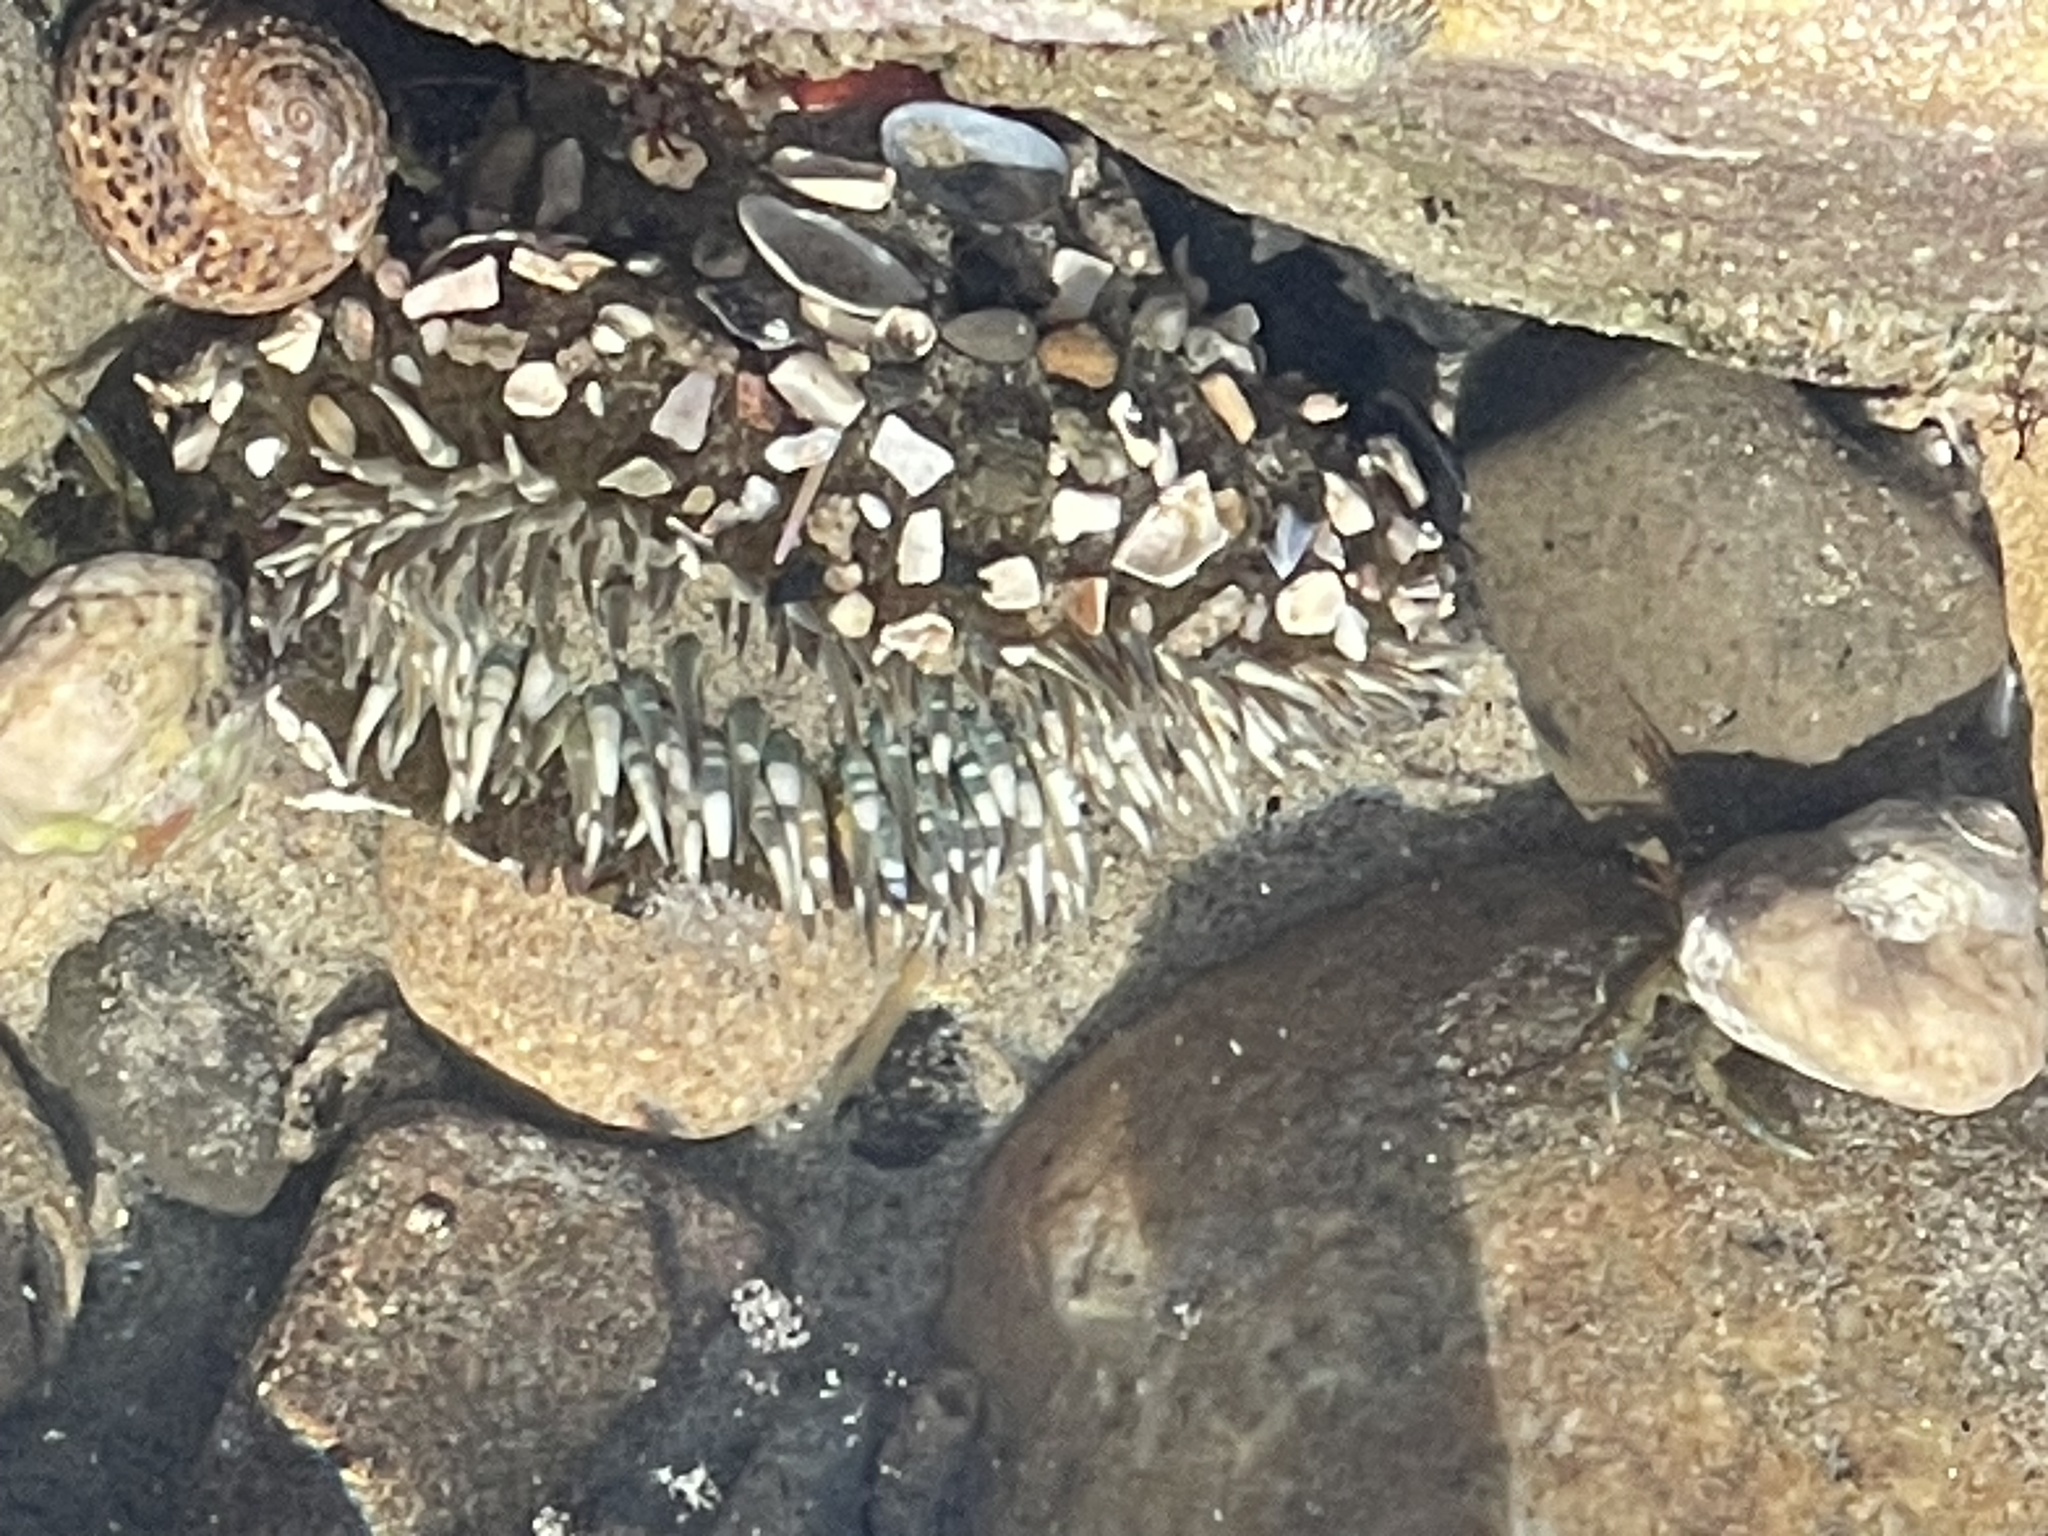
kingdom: Animalia
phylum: Cnidaria
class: Anthozoa
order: Actiniaria
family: Actiniidae
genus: Anthopleura
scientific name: Anthopleura sola
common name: Sun anemone
